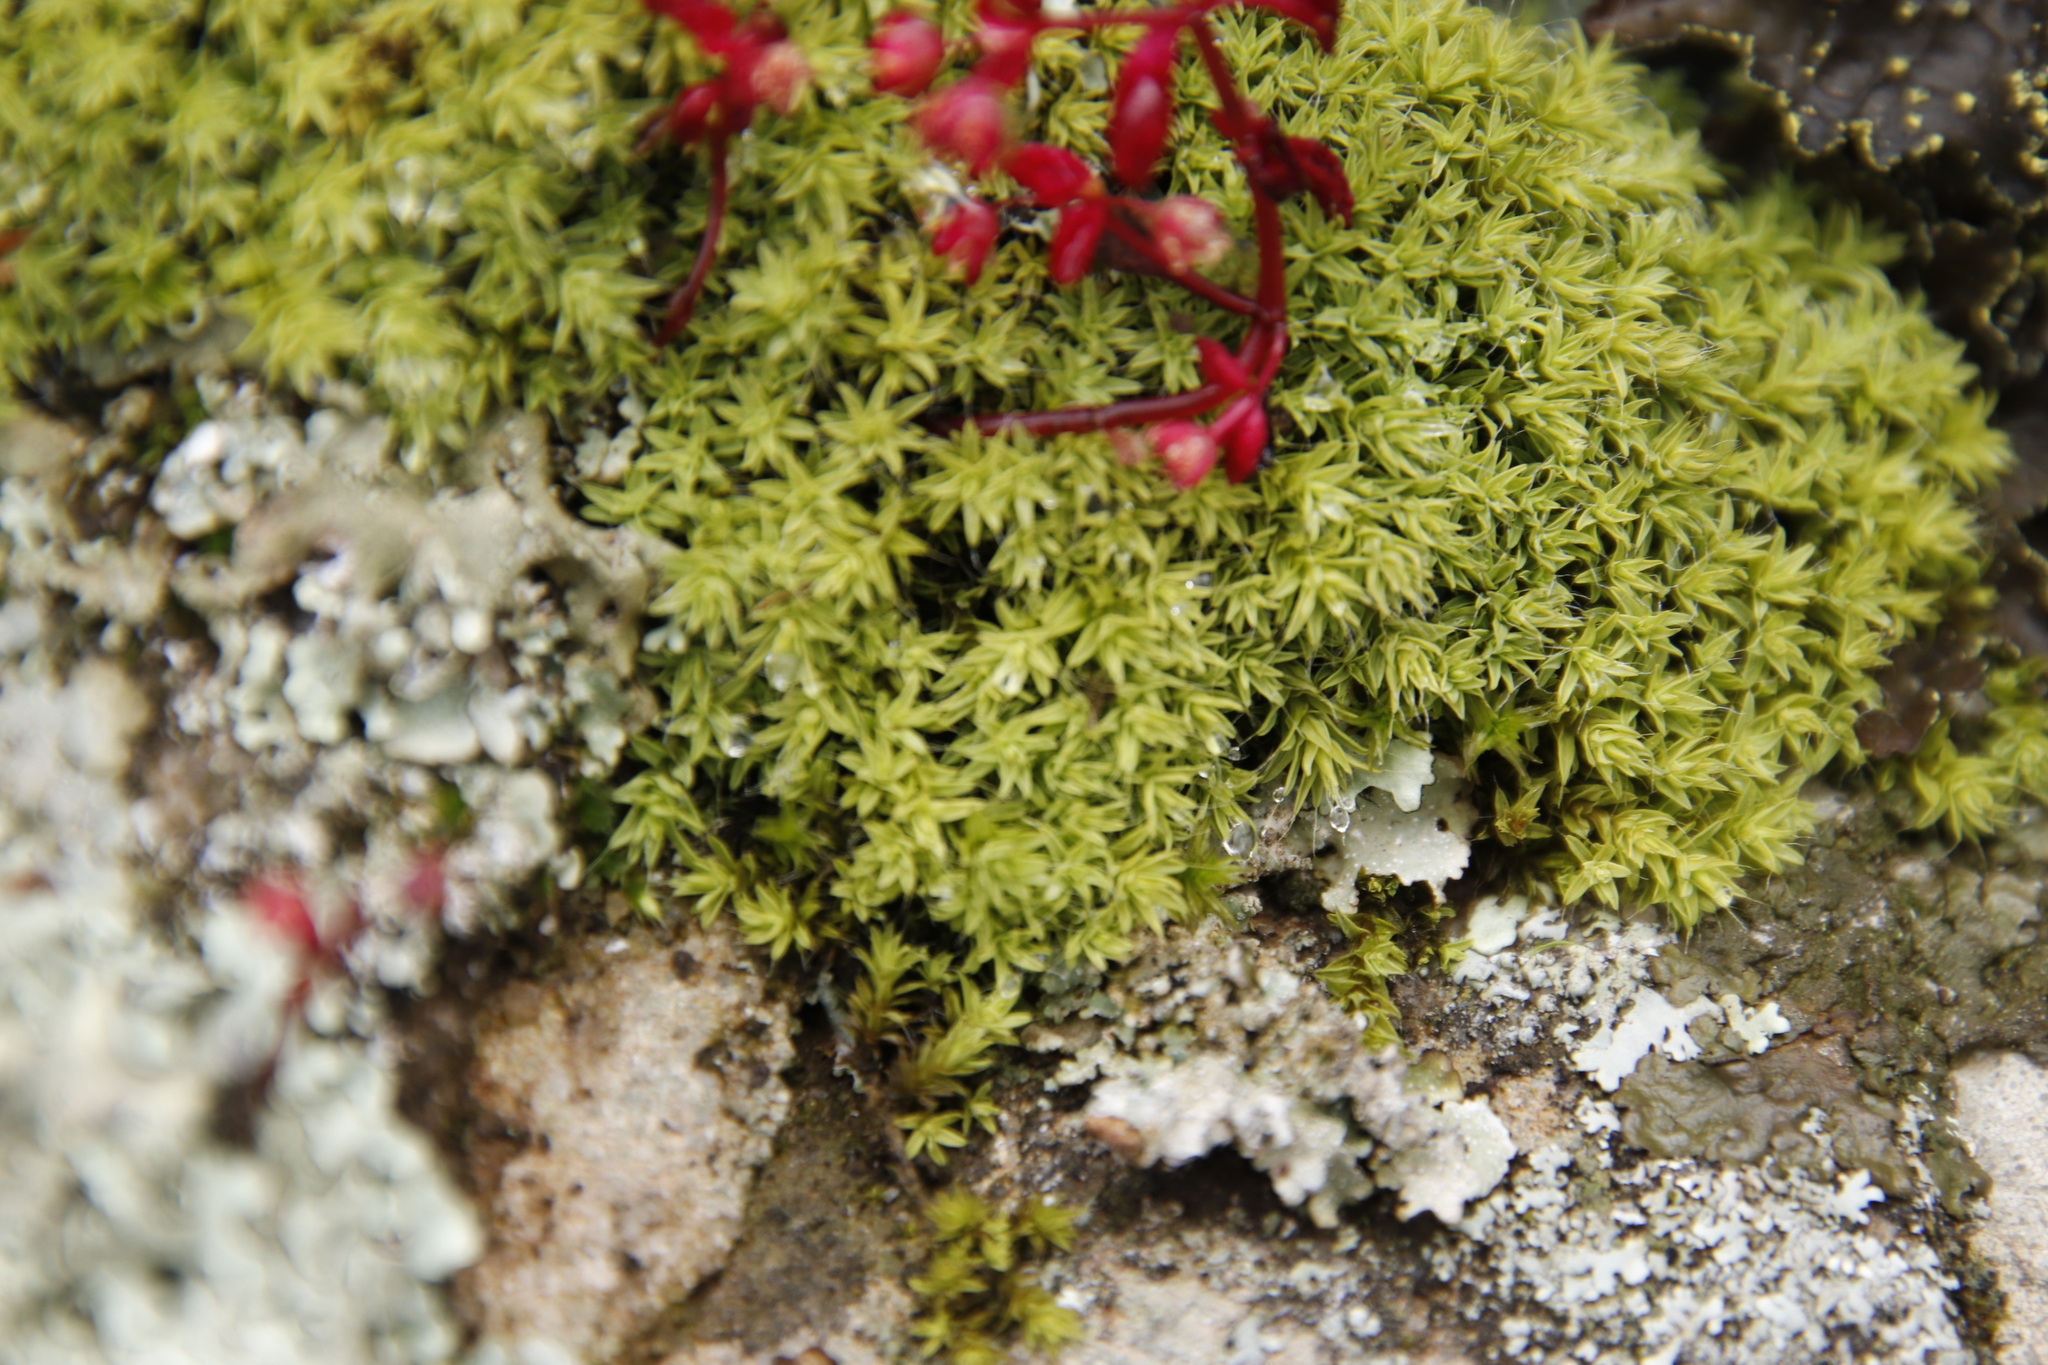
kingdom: Plantae
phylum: Bryophyta
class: Bryopsida
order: Pottiales
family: Pottiaceae
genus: Pseudocrossidium
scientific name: Pseudocrossidium crinitum
